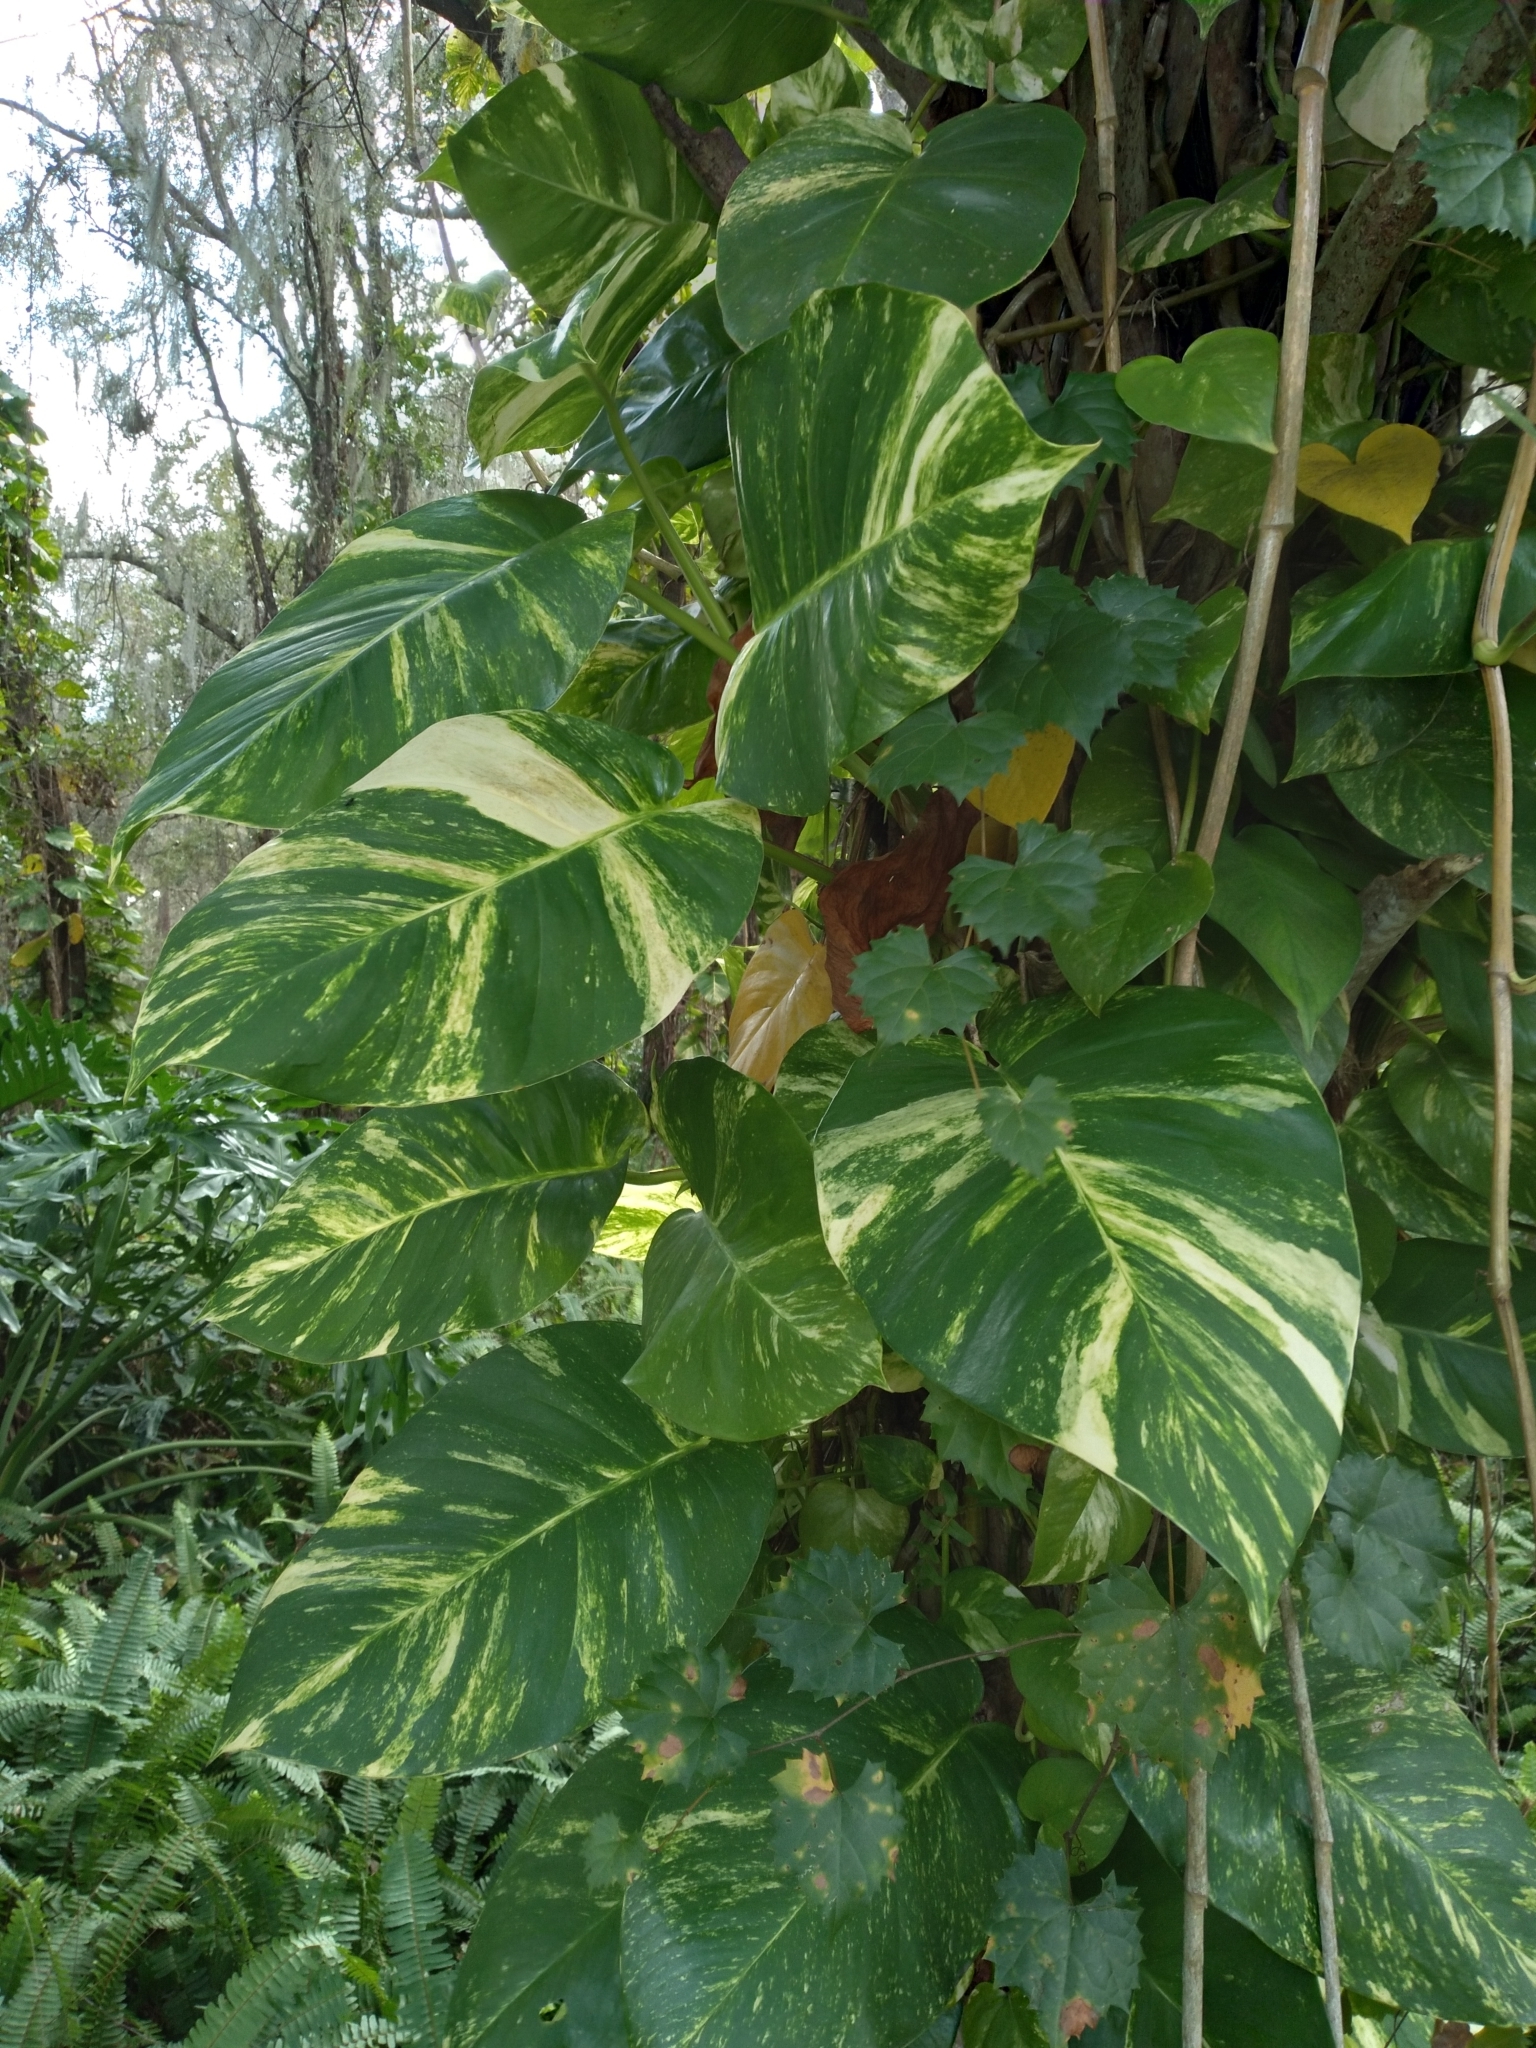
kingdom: Plantae
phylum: Tracheophyta
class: Liliopsida
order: Alismatales
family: Araceae
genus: Epipremnum
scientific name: Epipremnum aureum
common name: Golden hunter's-robe
